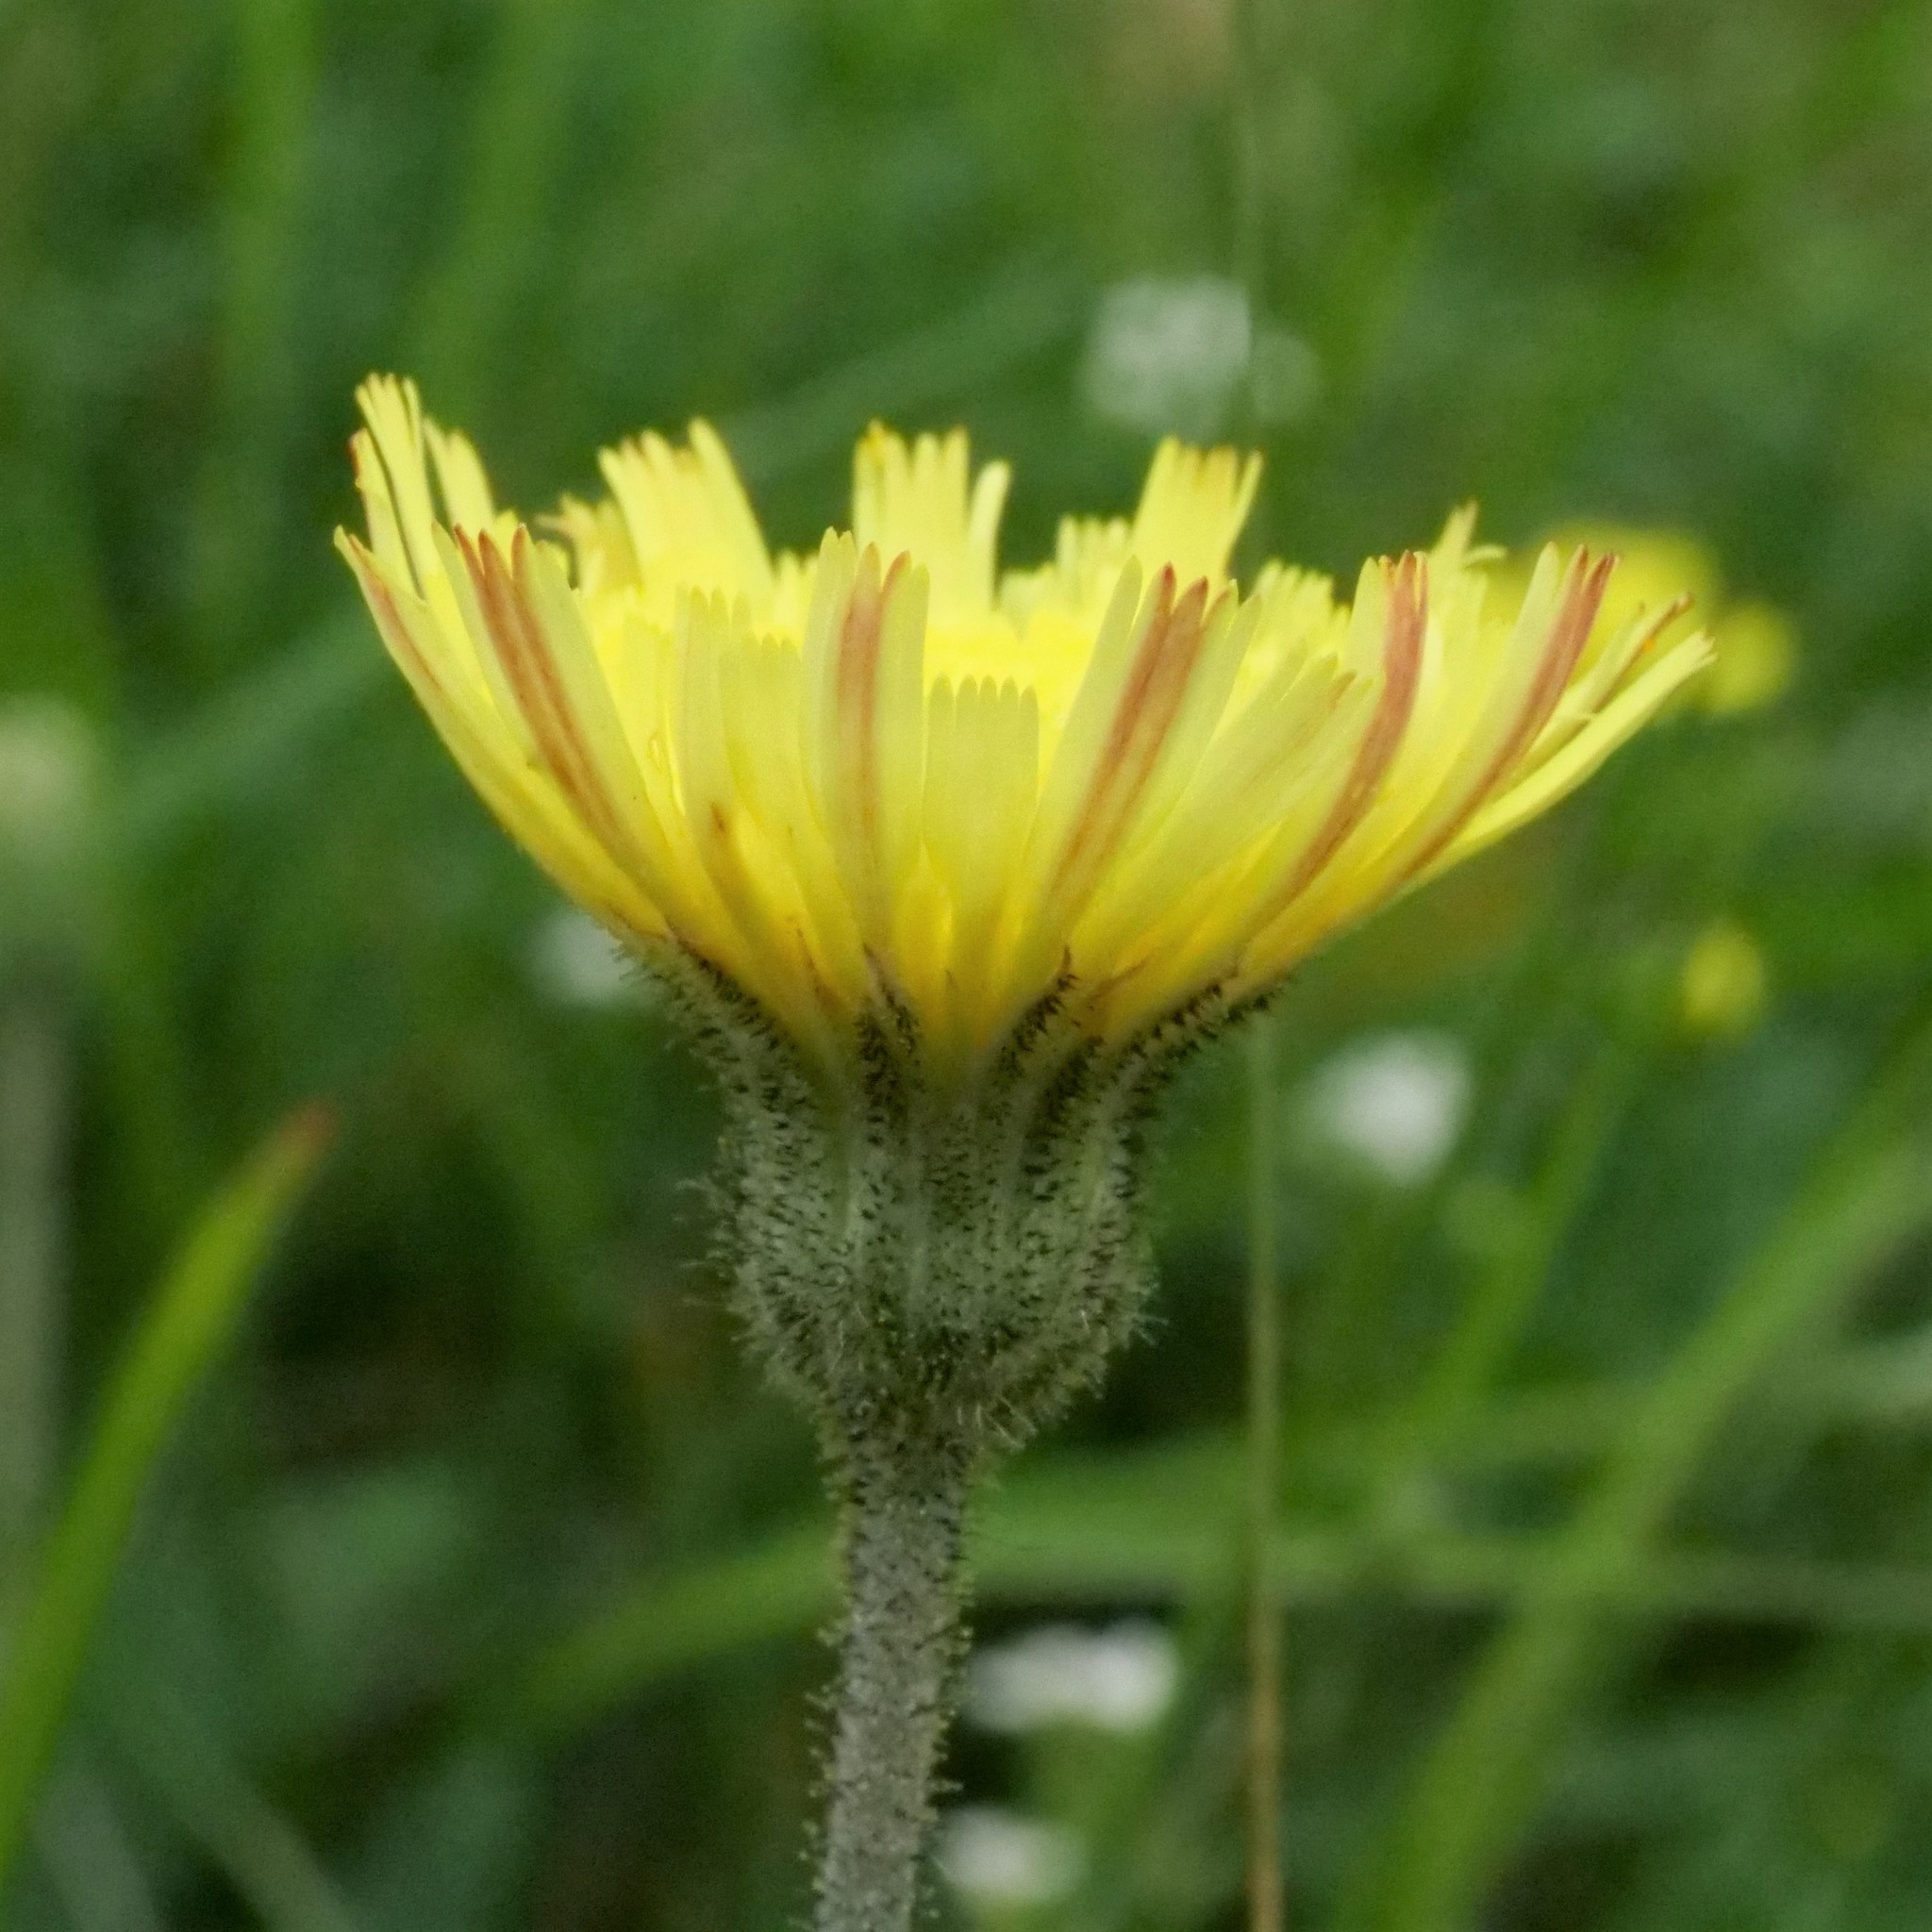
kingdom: Plantae
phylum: Tracheophyta
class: Magnoliopsida
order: Asterales
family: Asteraceae
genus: Pilosella
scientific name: Pilosella officinarum
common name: Mouse-ear hawkweed
